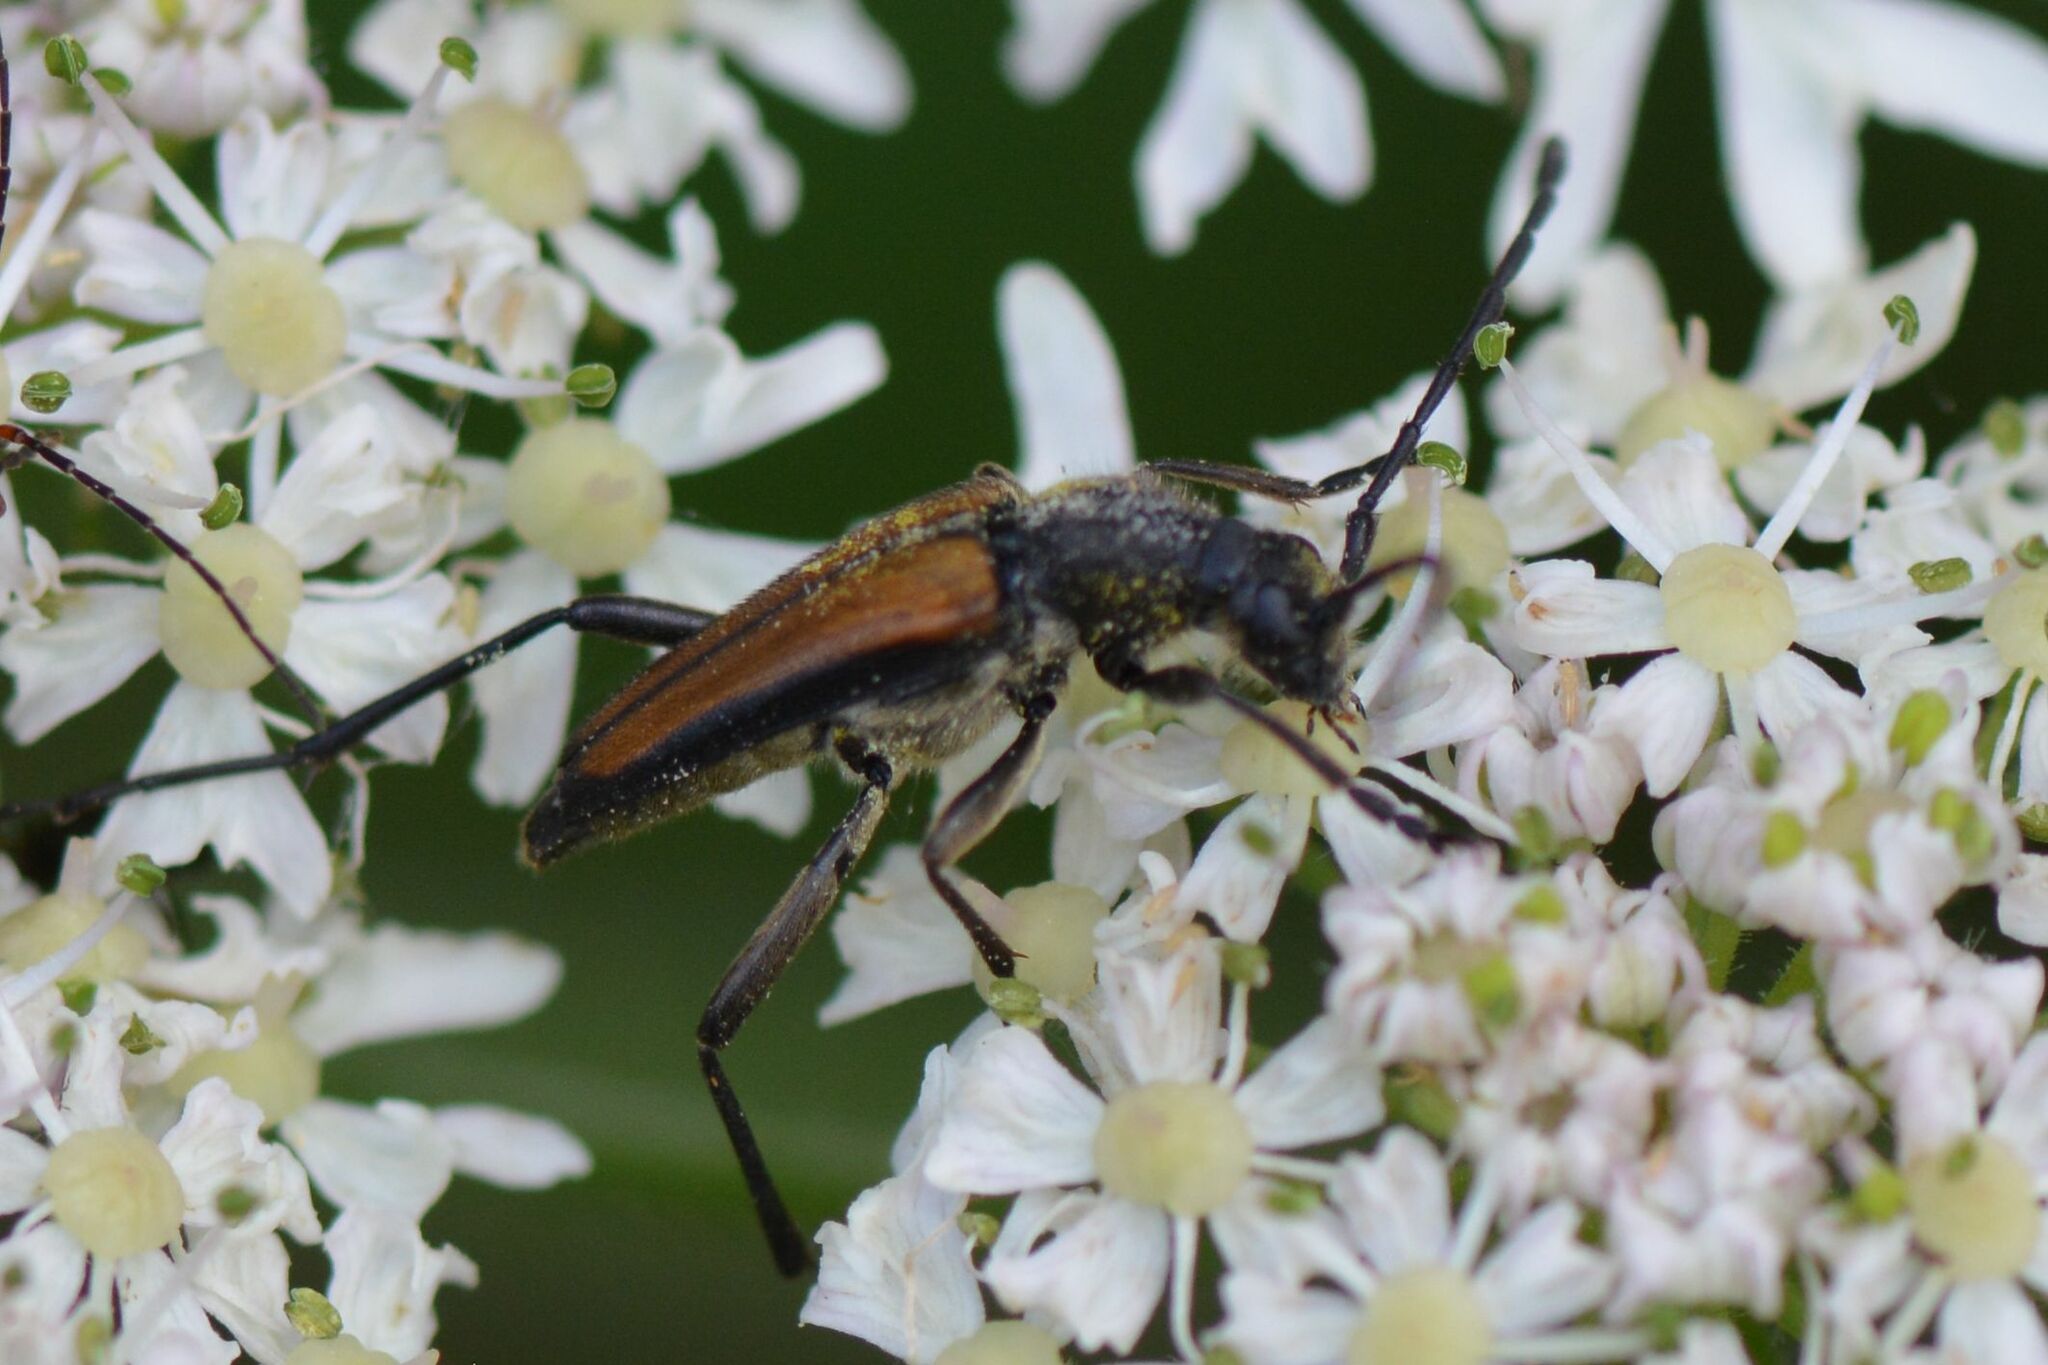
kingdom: Animalia
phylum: Arthropoda
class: Insecta
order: Coleoptera
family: Cerambycidae
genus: Anastrangalia
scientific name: Anastrangalia dubia
